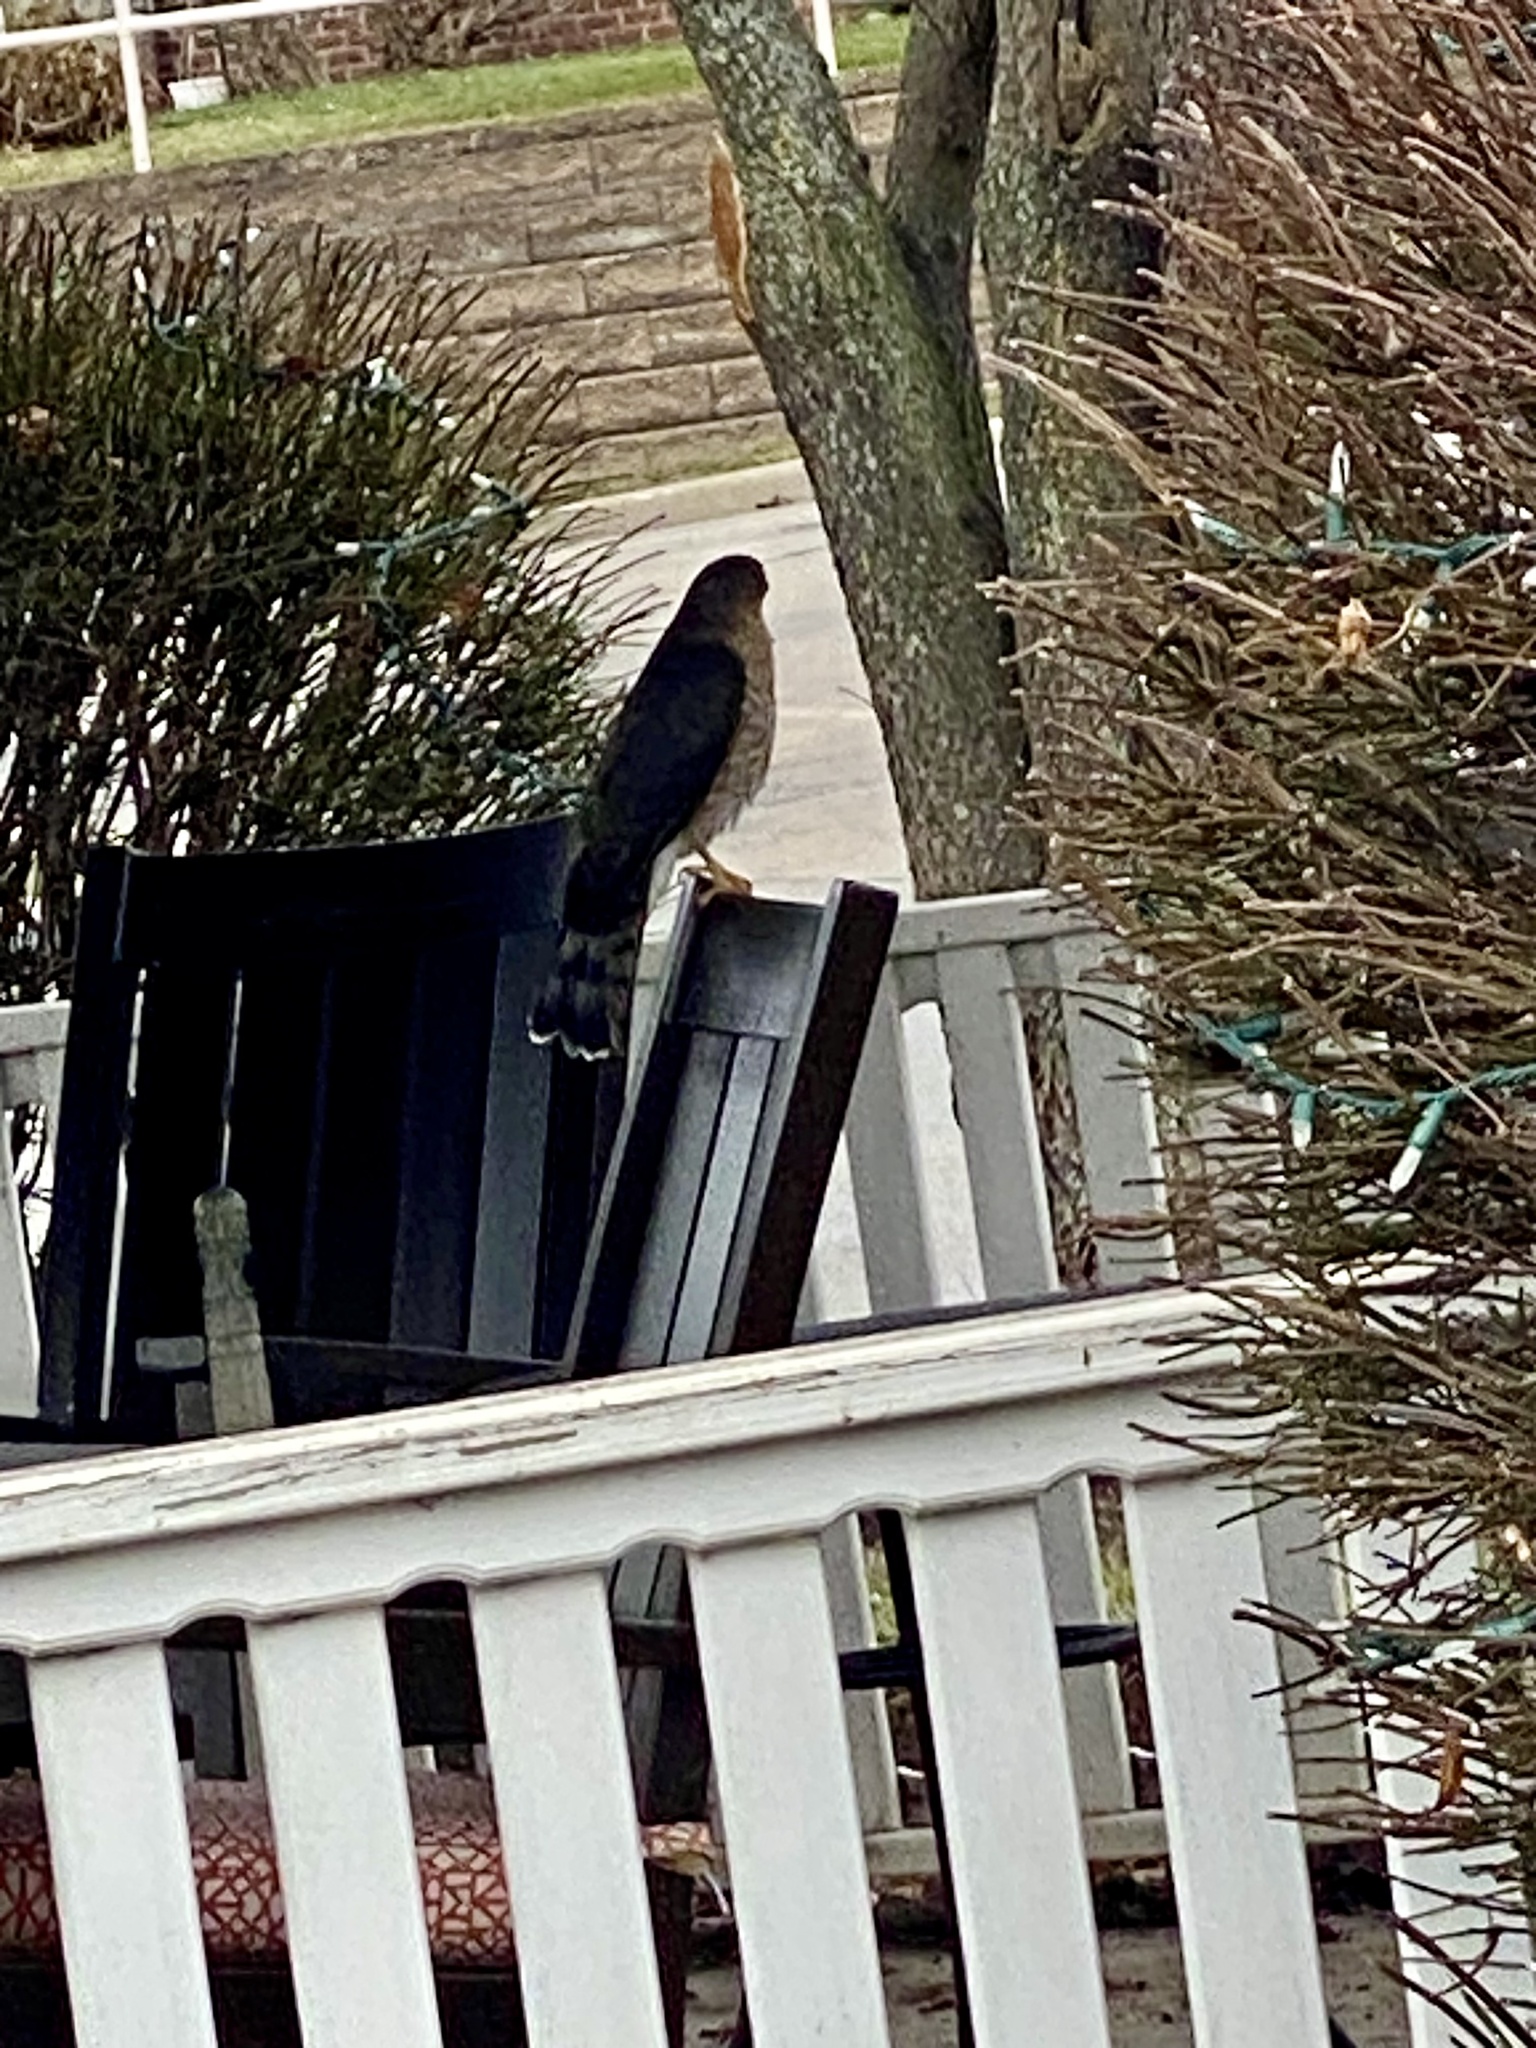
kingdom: Animalia
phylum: Chordata
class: Aves
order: Accipitriformes
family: Accipitridae
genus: Accipiter
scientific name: Accipiter cooperii
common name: Cooper's hawk
